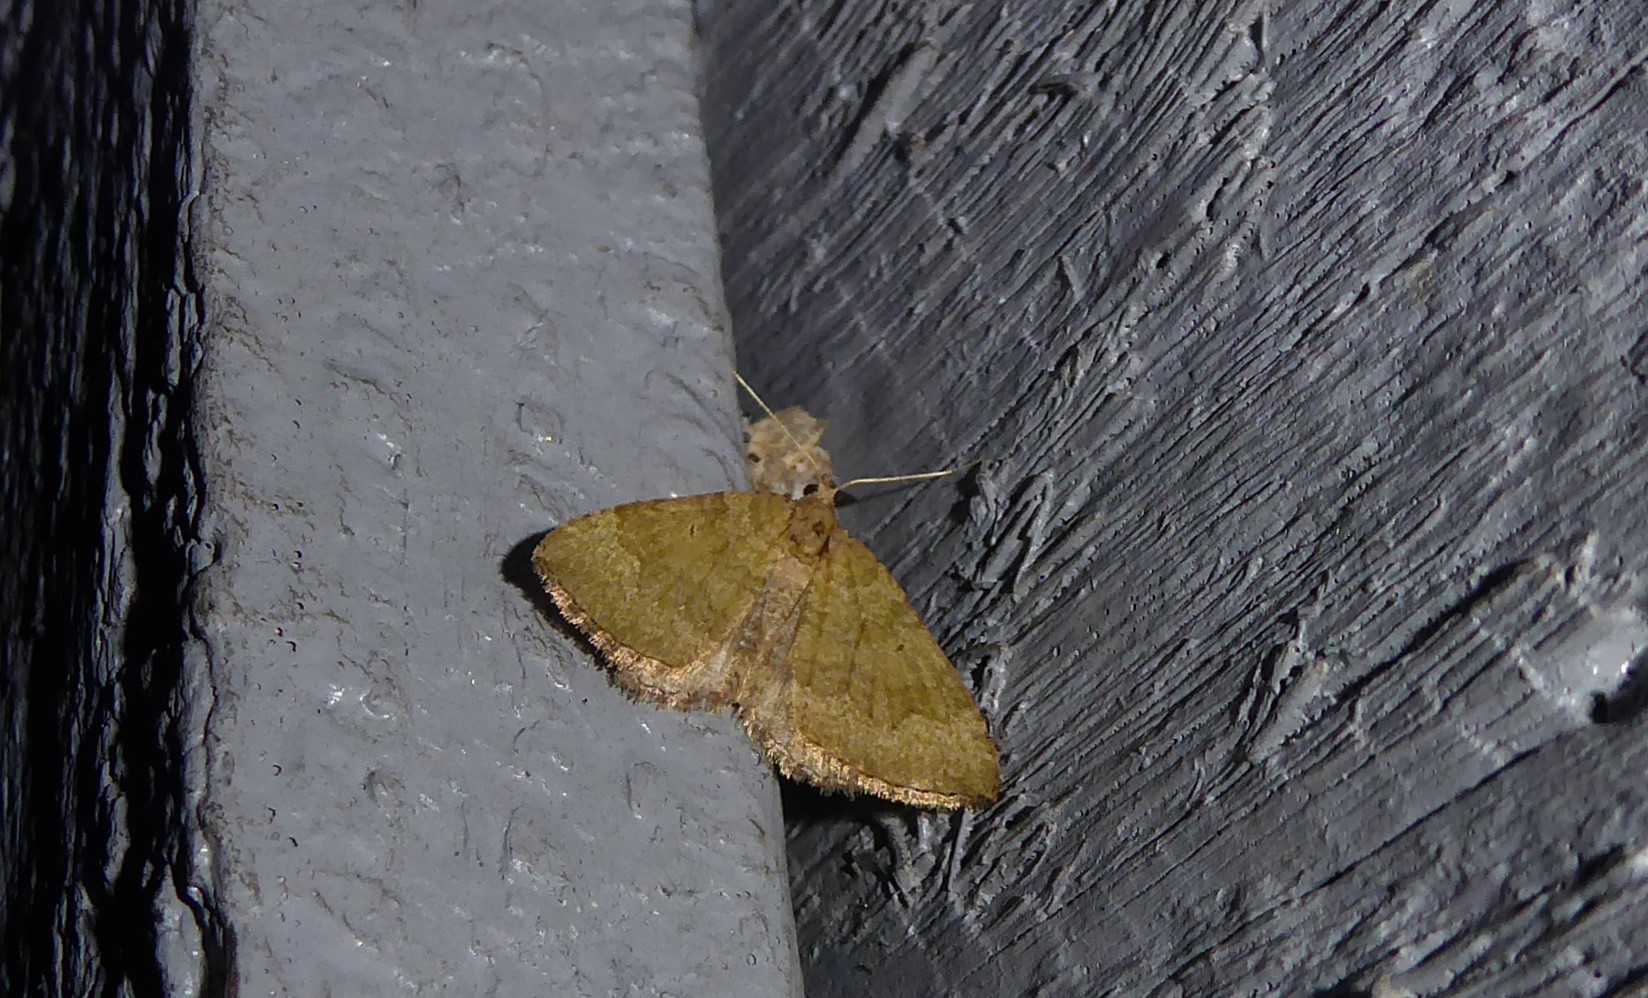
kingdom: Animalia
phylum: Arthropoda
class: Insecta
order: Lepidoptera
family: Geometridae
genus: Epyaxa
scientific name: Epyaxa rosearia
